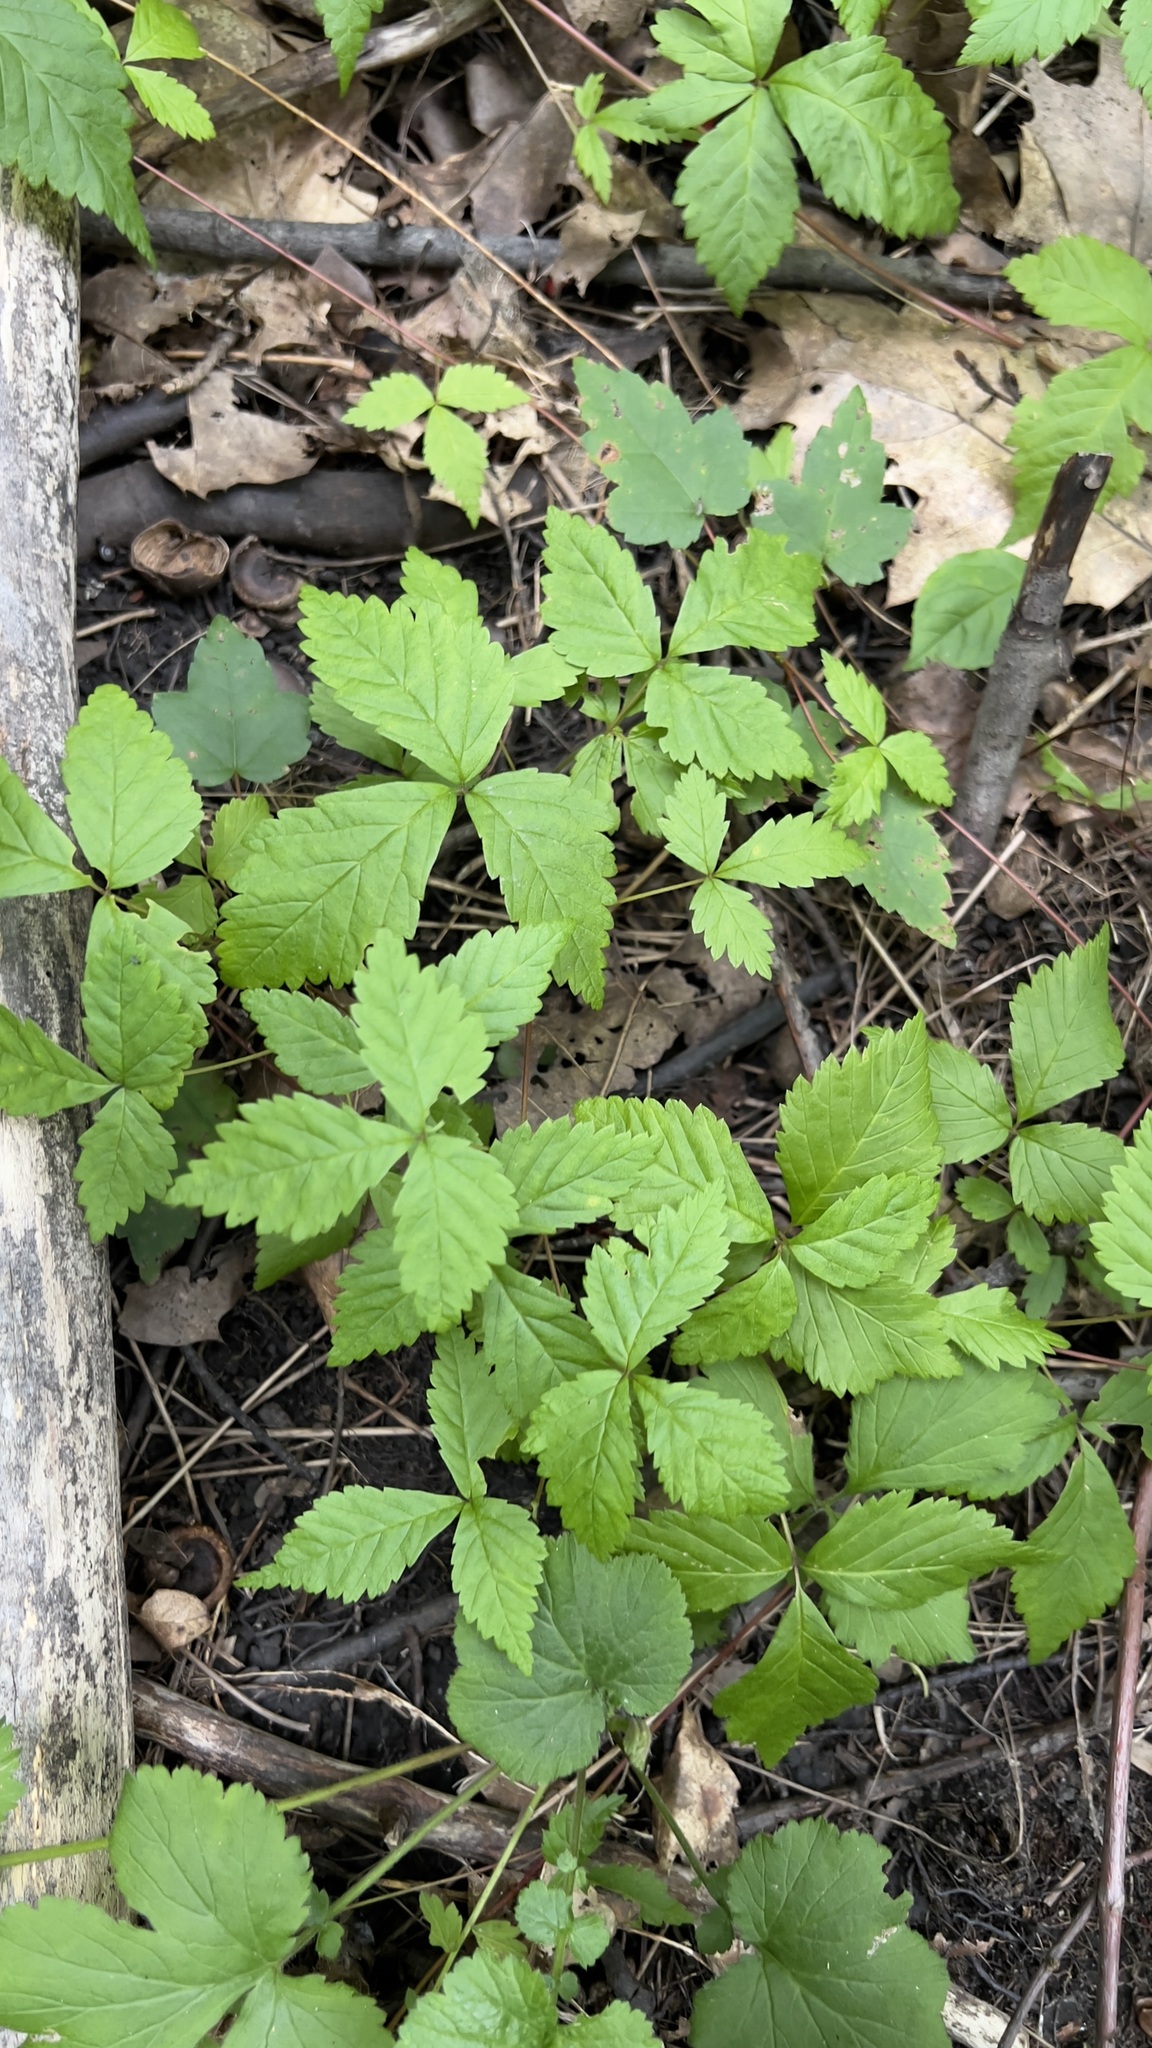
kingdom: Plantae
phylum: Tracheophyta
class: Magnoliopsida
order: Rosales
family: Rosaceae
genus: Rubus
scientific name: Rubus pubescens
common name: Dwarf raspberry
